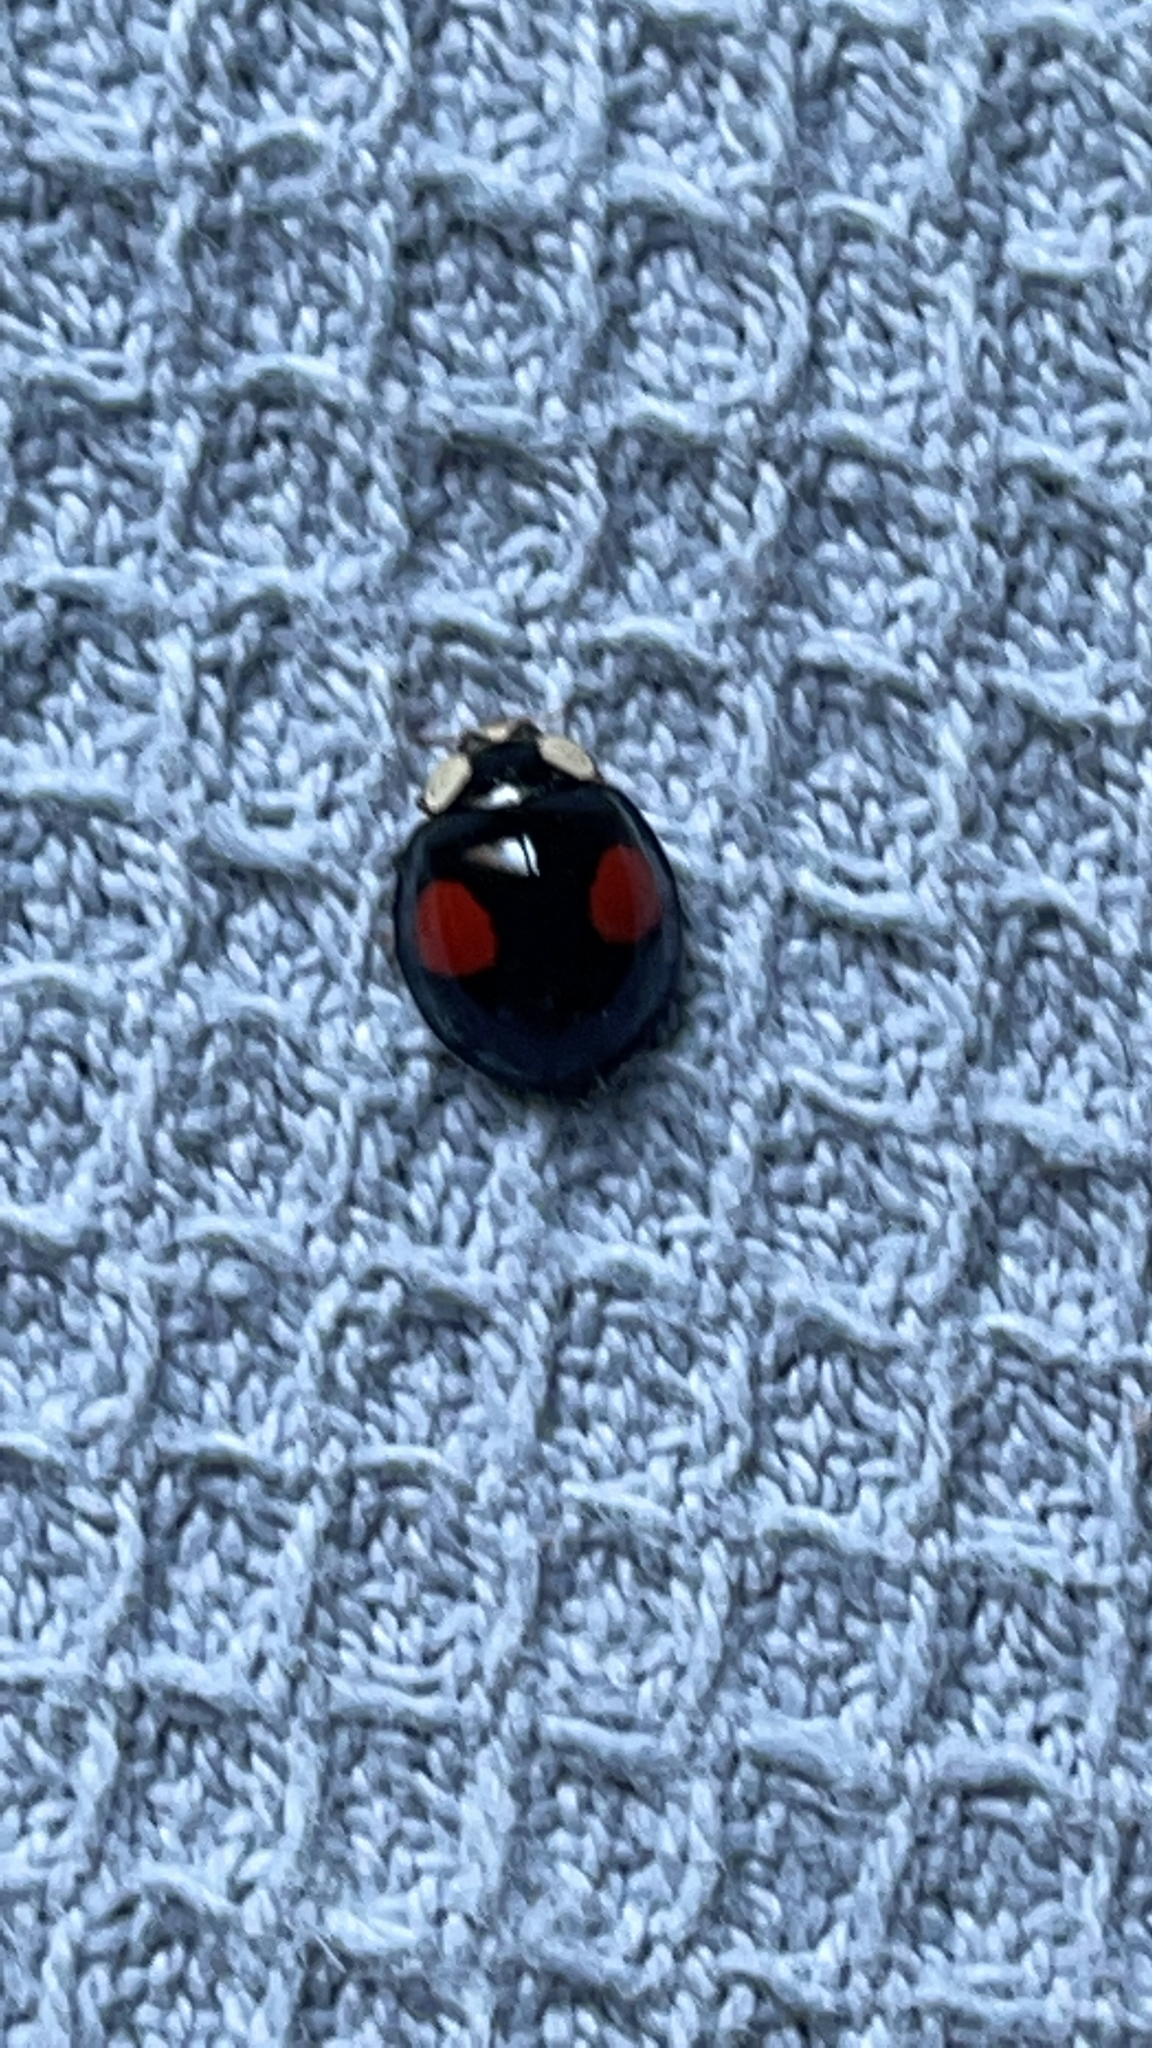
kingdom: Animalia
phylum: Arthropoda
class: Insecta
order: Coleoptera
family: Coccinellidae
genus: Harmonia
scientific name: Harmonia axyridis
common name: Harlequin ladybird
